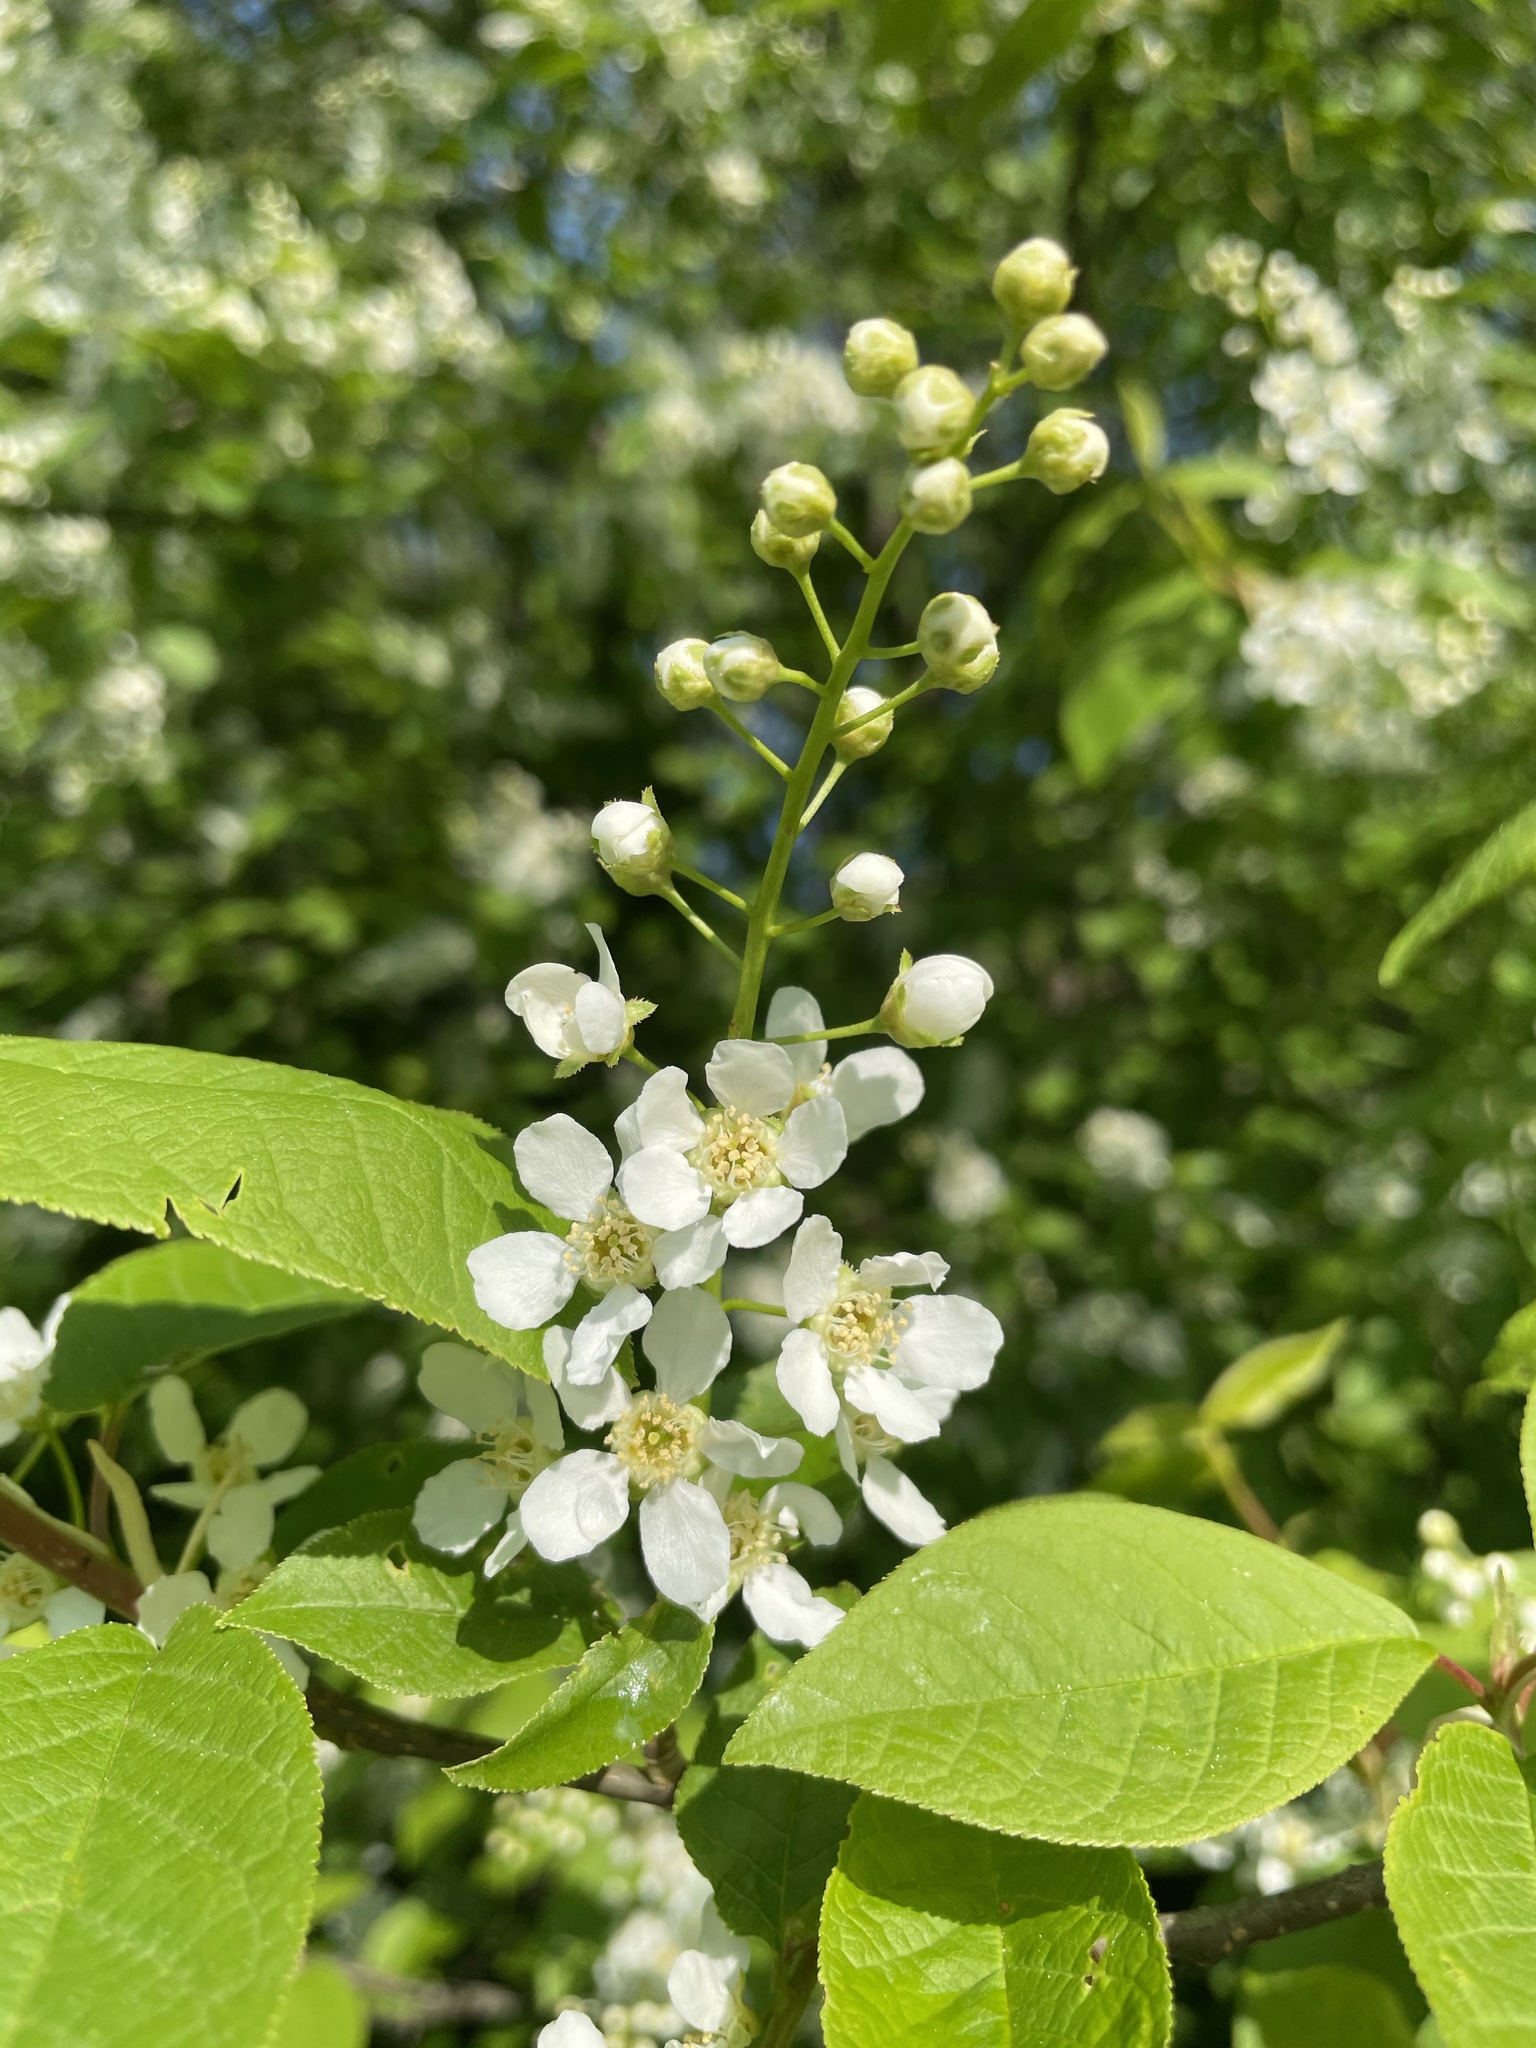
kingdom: Plantae
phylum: Tracheophyta
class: Magnoliopsida
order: Rosales
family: Rosaceae
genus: Prunus
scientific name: Prunus padus
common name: Bird cherry
